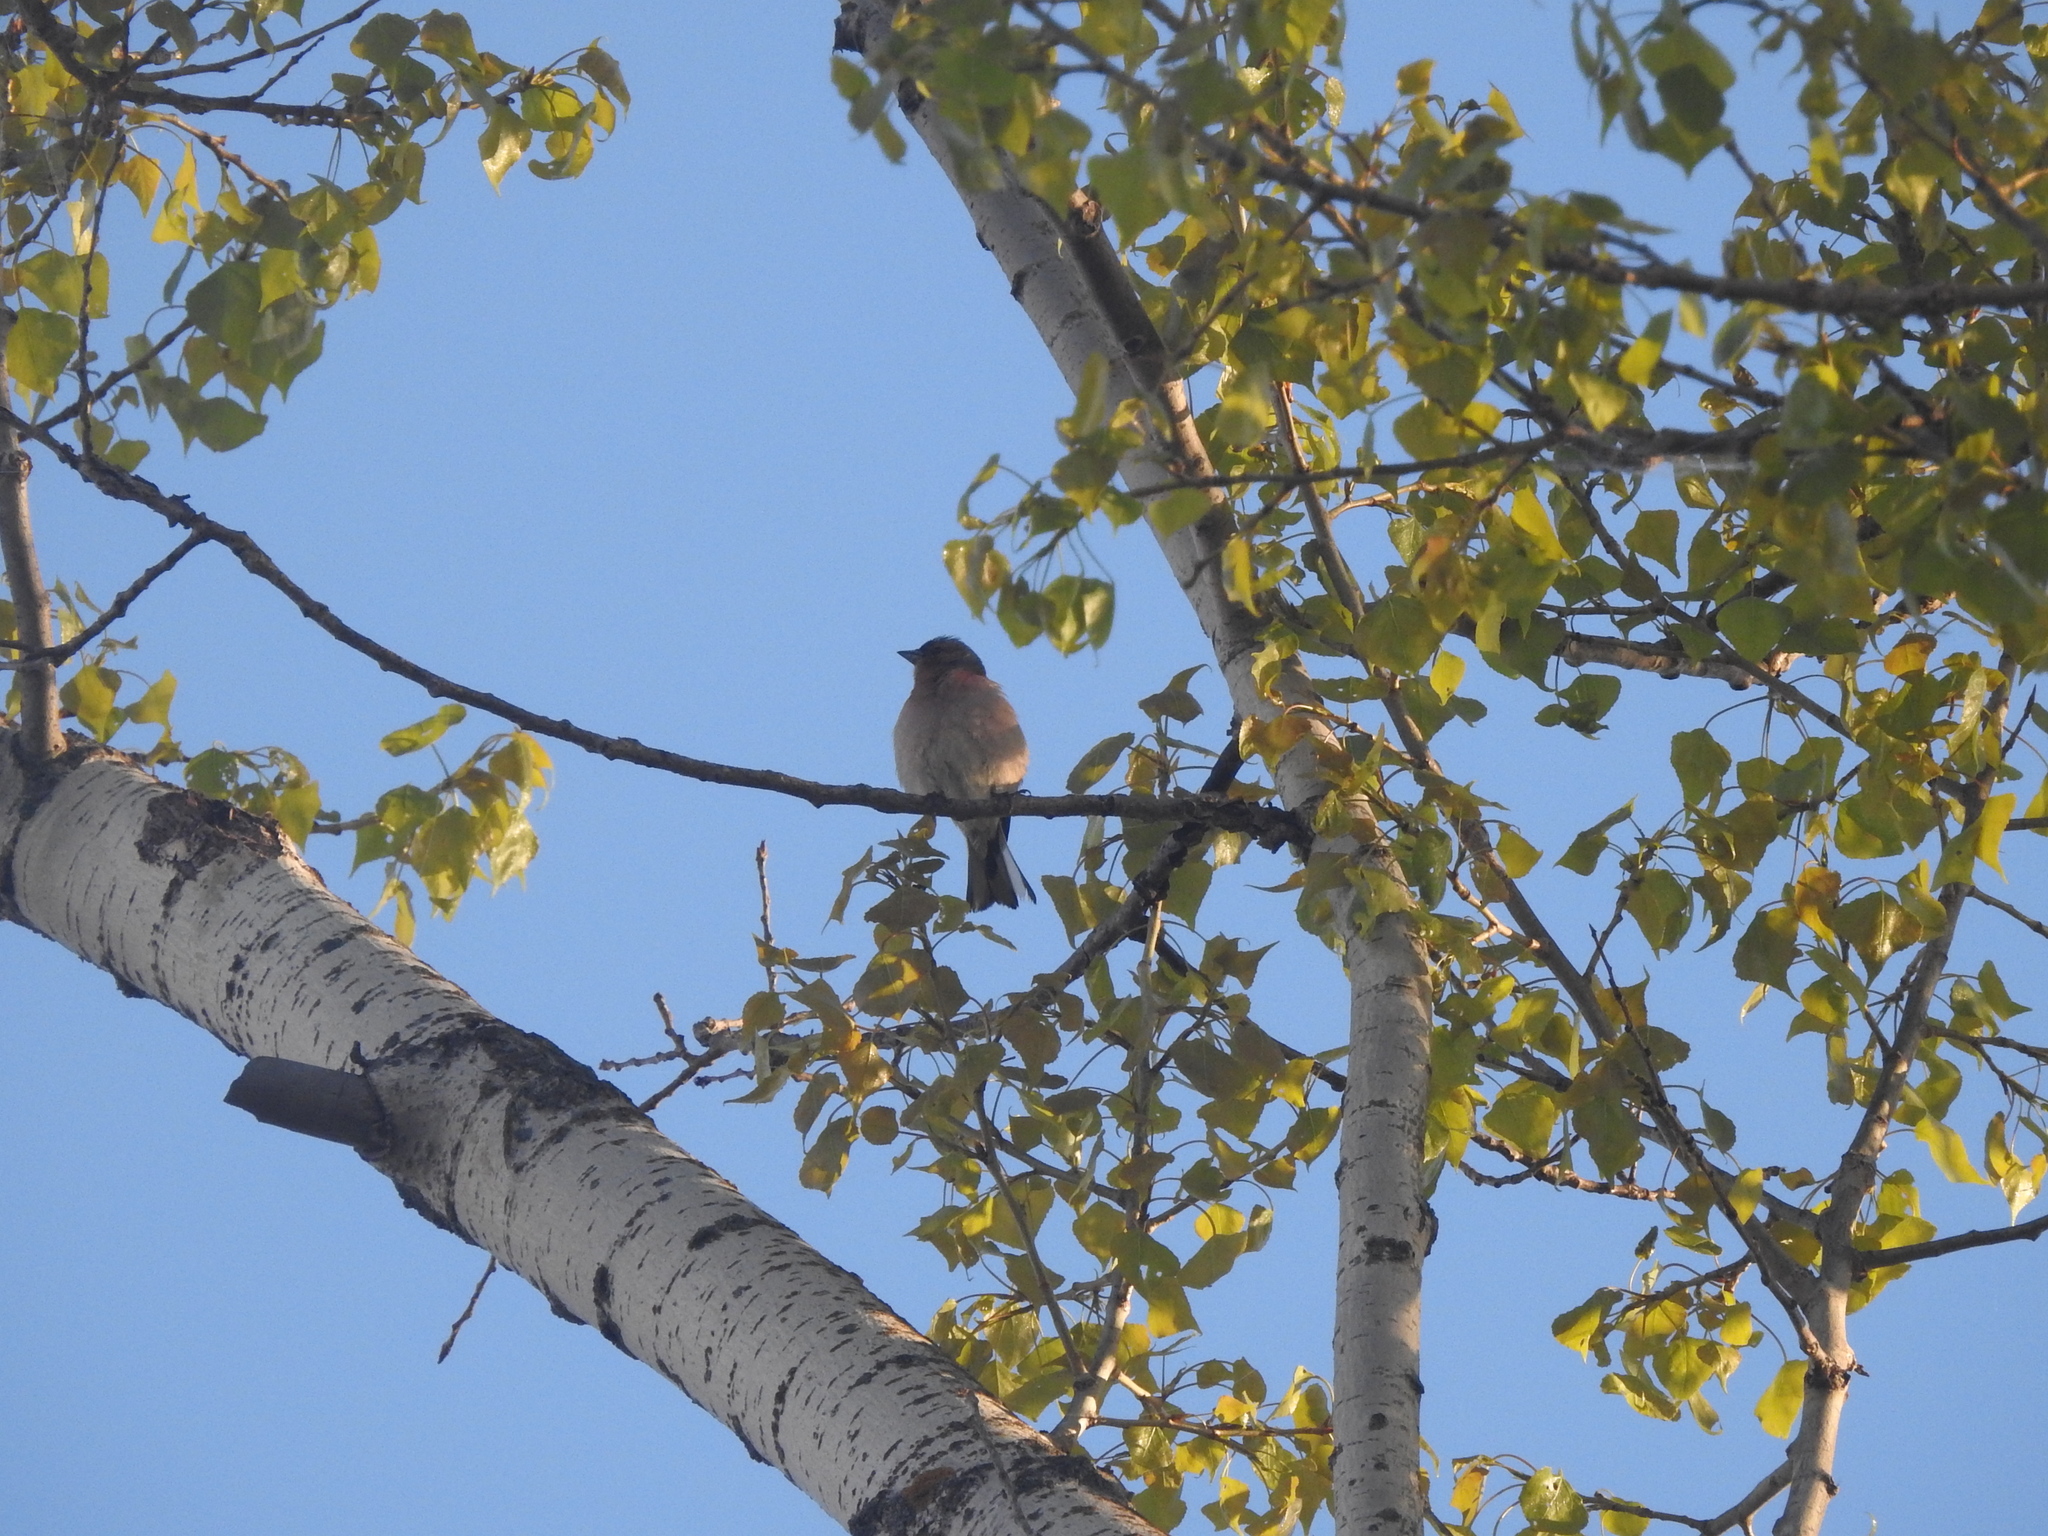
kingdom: Animalia
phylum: Chordata
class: Aves
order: Passeriformes
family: Fringillidae
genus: Fringilla
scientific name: Fringilla coelebs
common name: Common chaffinch
